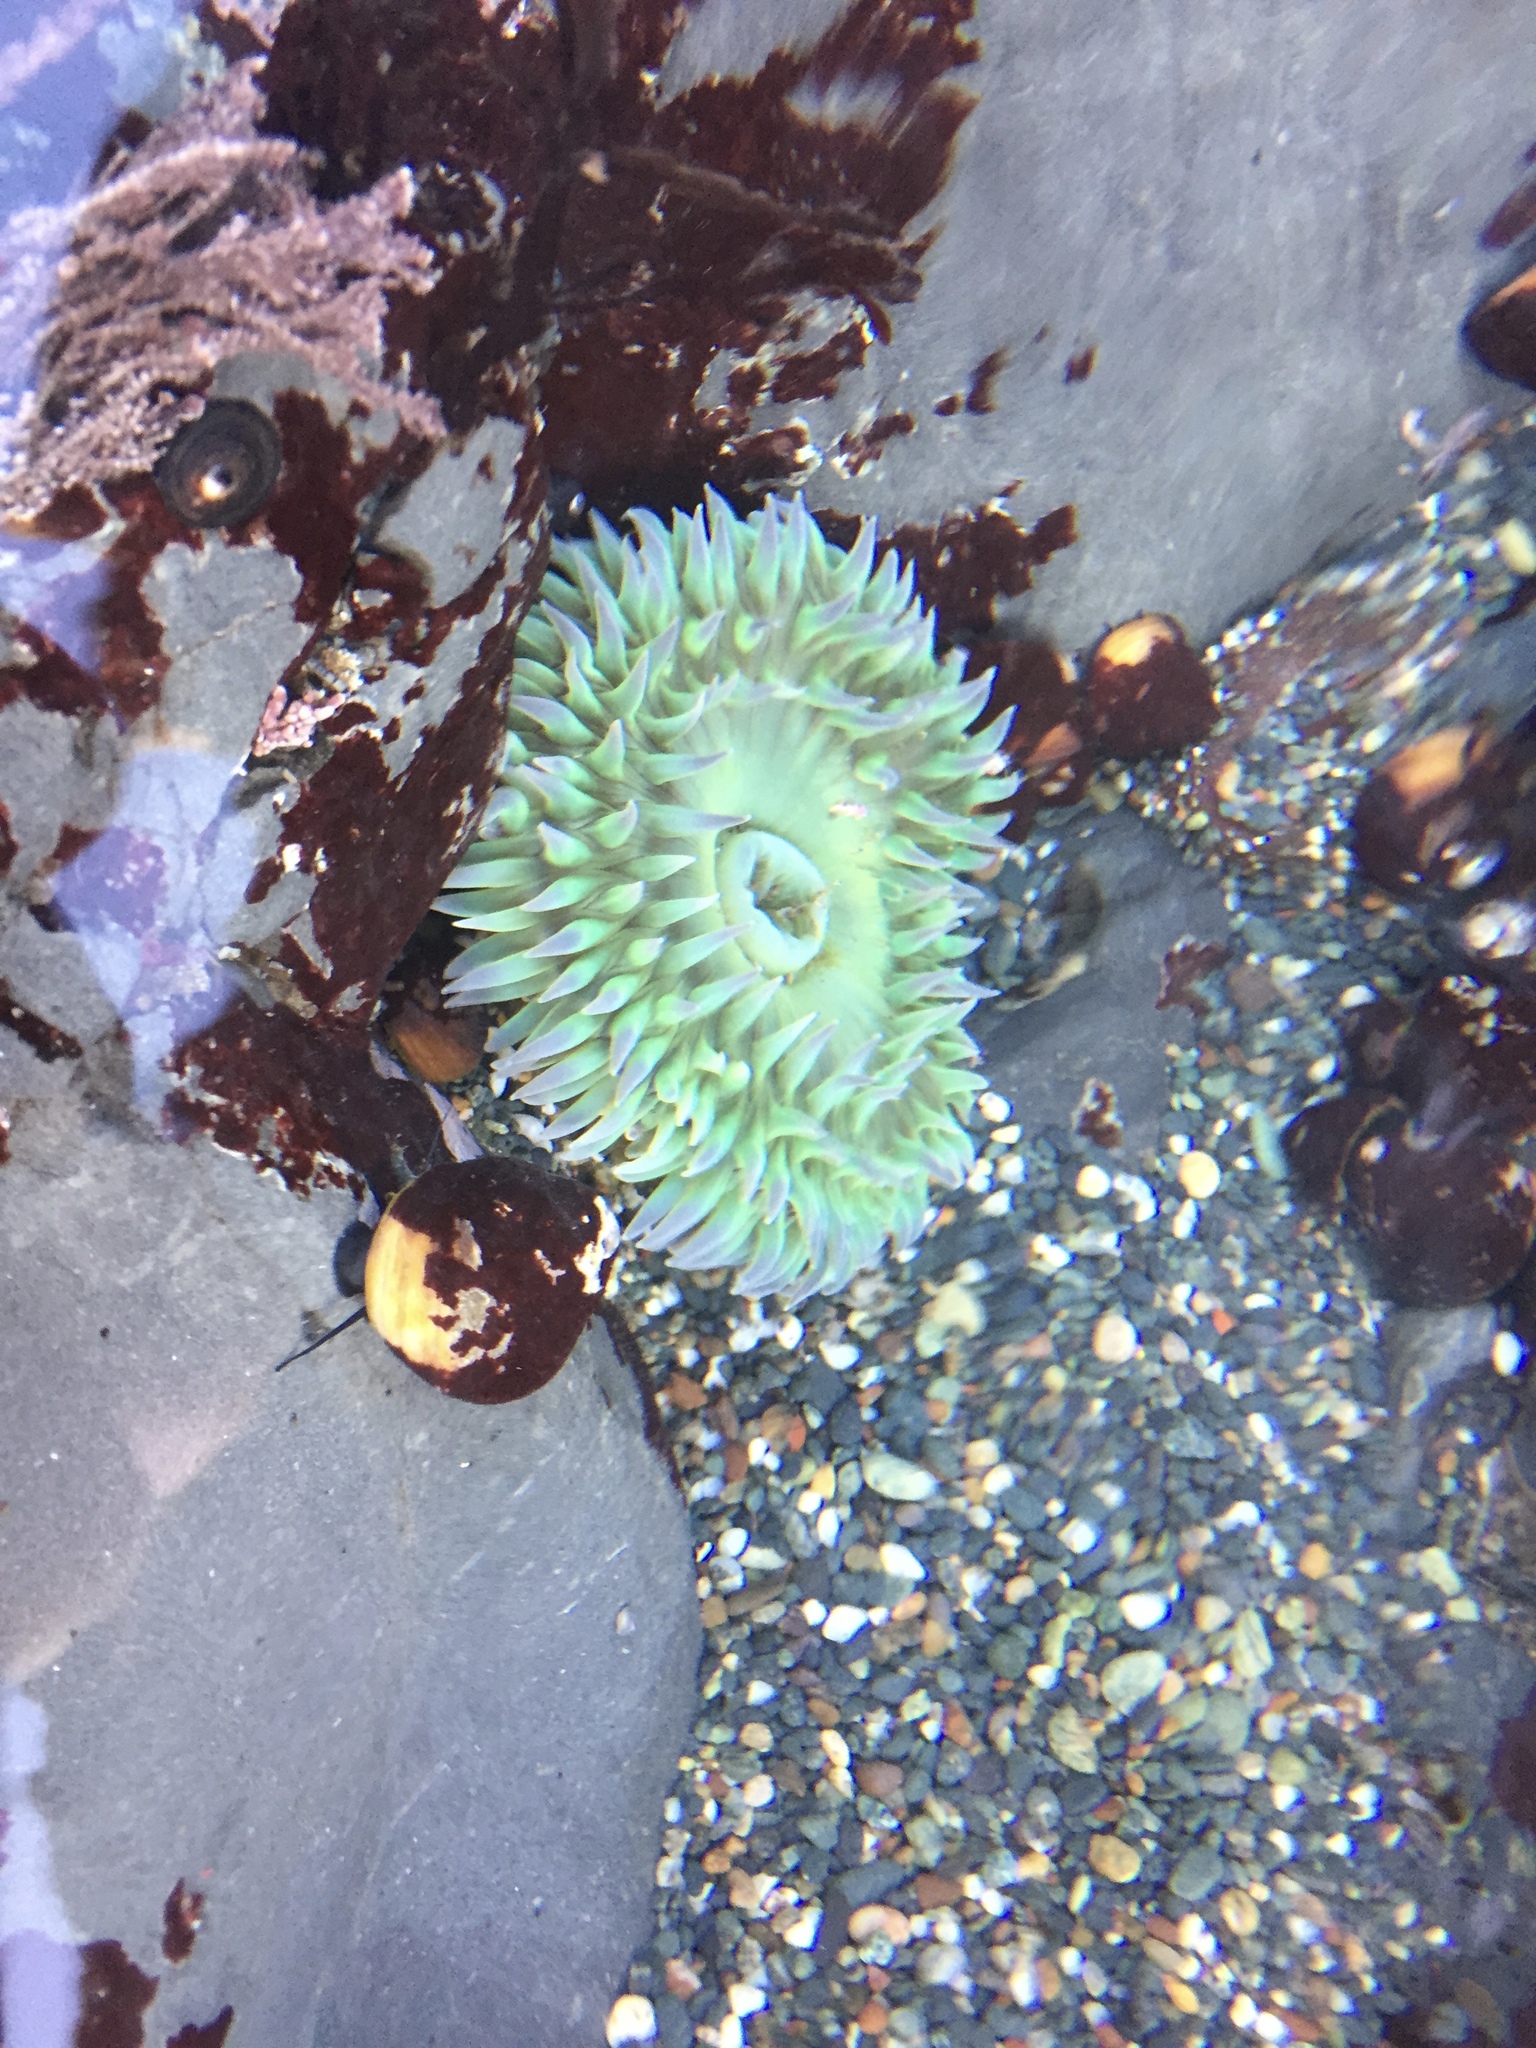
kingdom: Animalia
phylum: Cnidaria
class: Anthozoa
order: Actiniaria
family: Actiniidae
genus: Anthopleura
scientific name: Anthopleura xanthogrammica
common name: Giant green anemone
